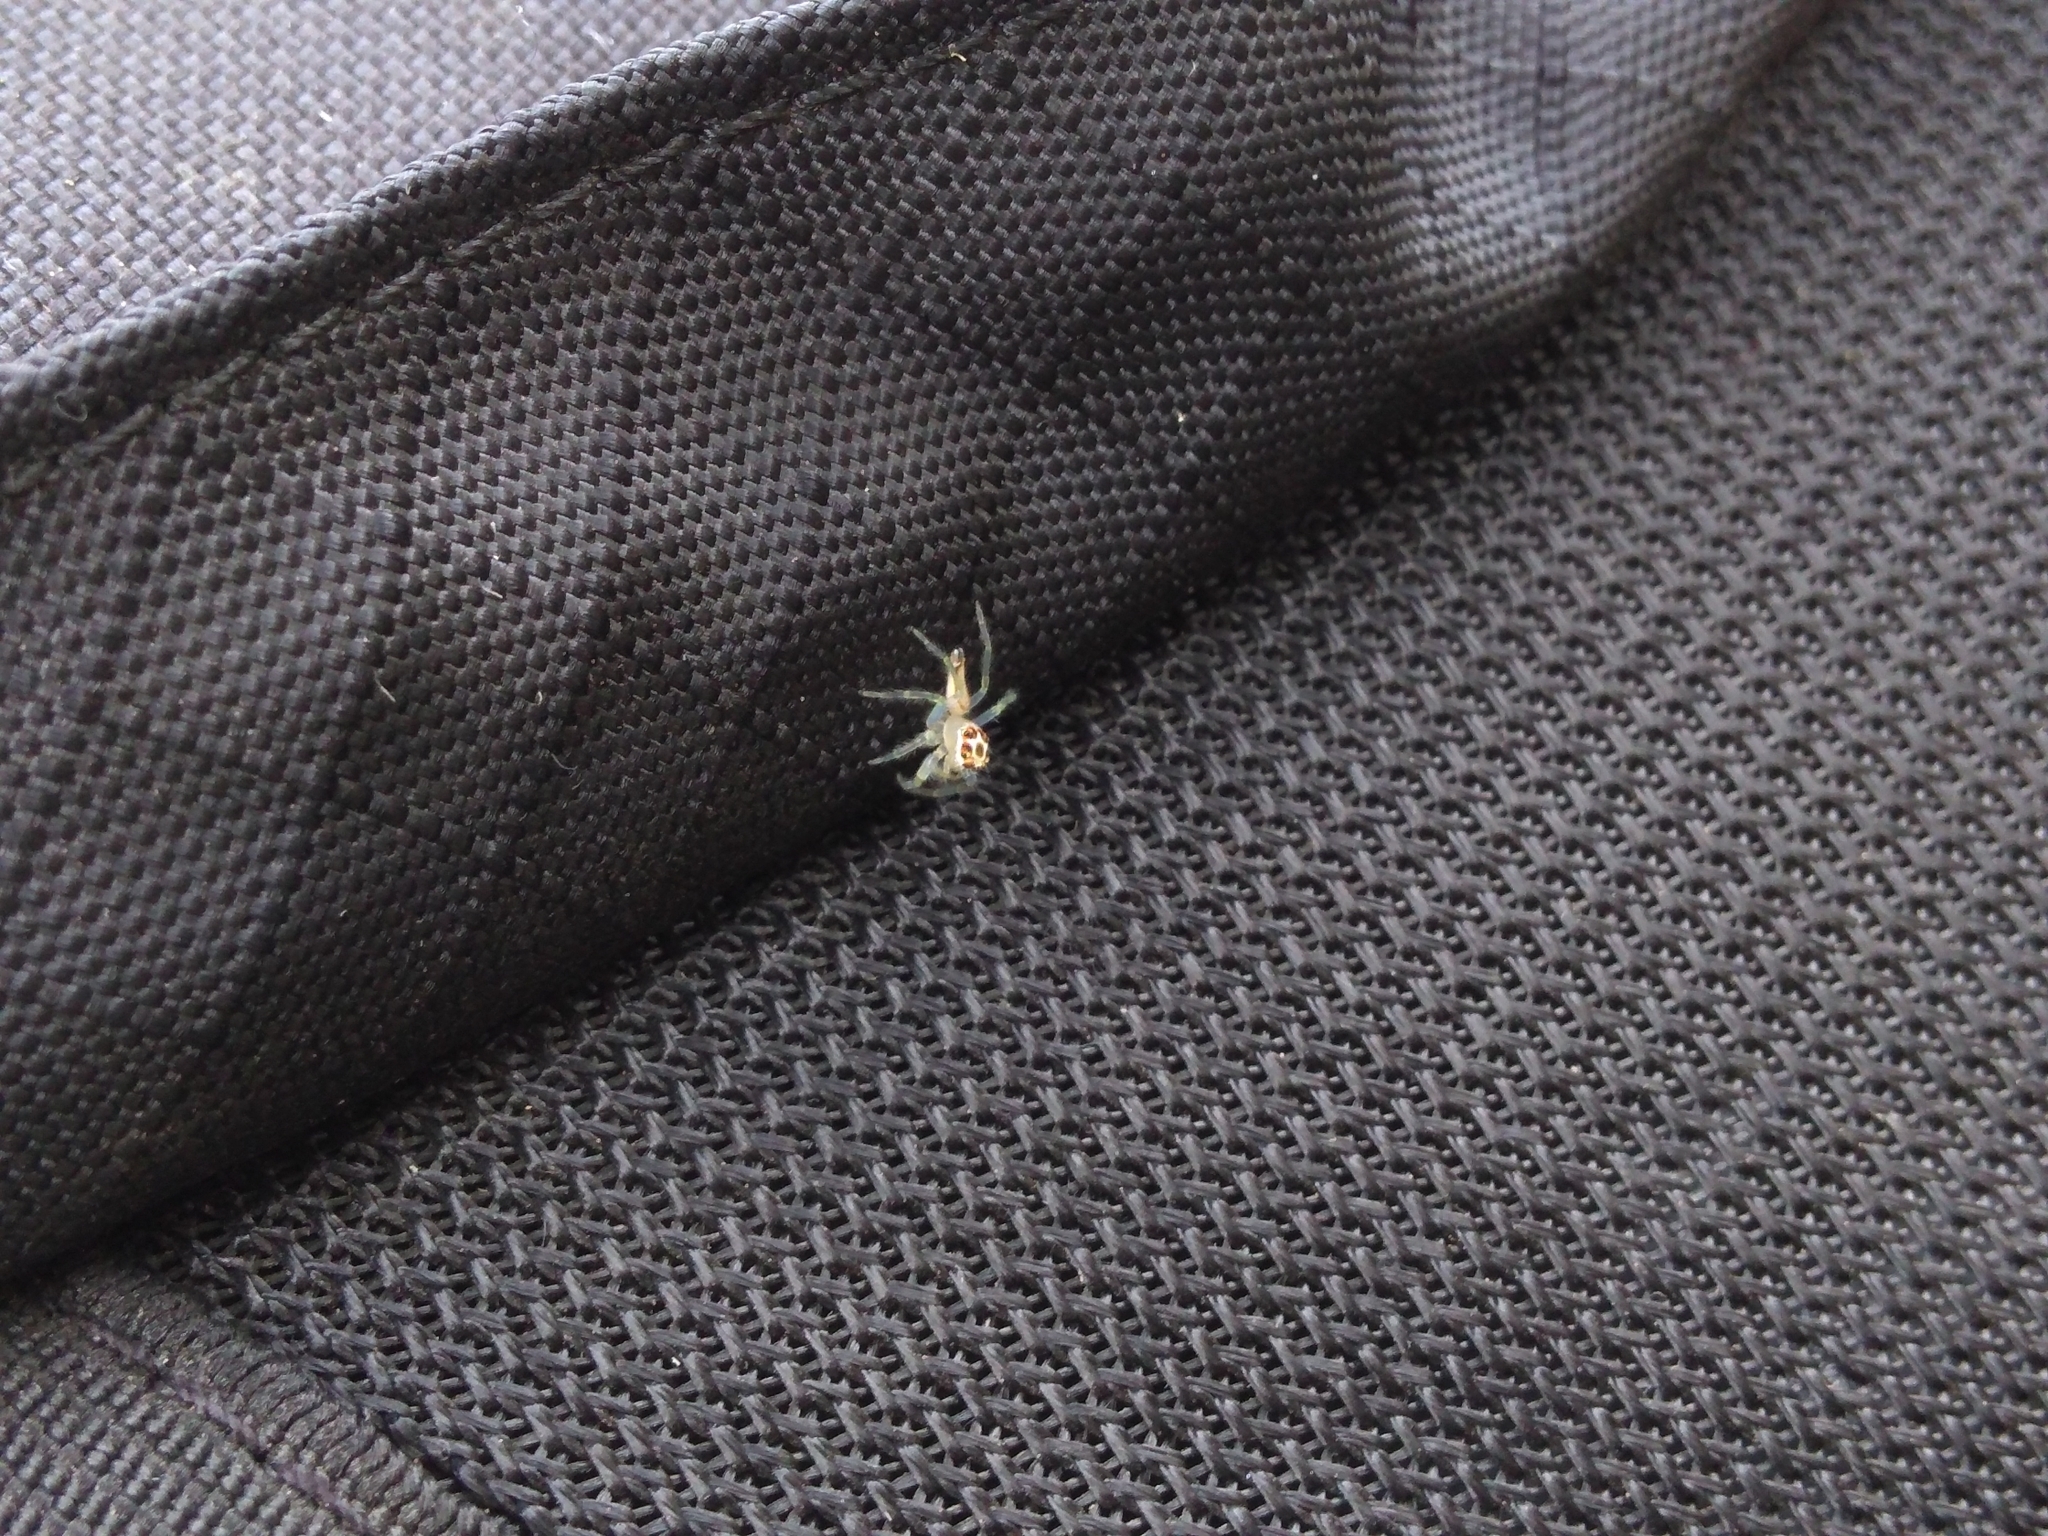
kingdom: Animalia
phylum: Arthropoda
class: Arachnida
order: Araneae
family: Salticidae
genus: Telamonia
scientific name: Telamonia dimidiata
